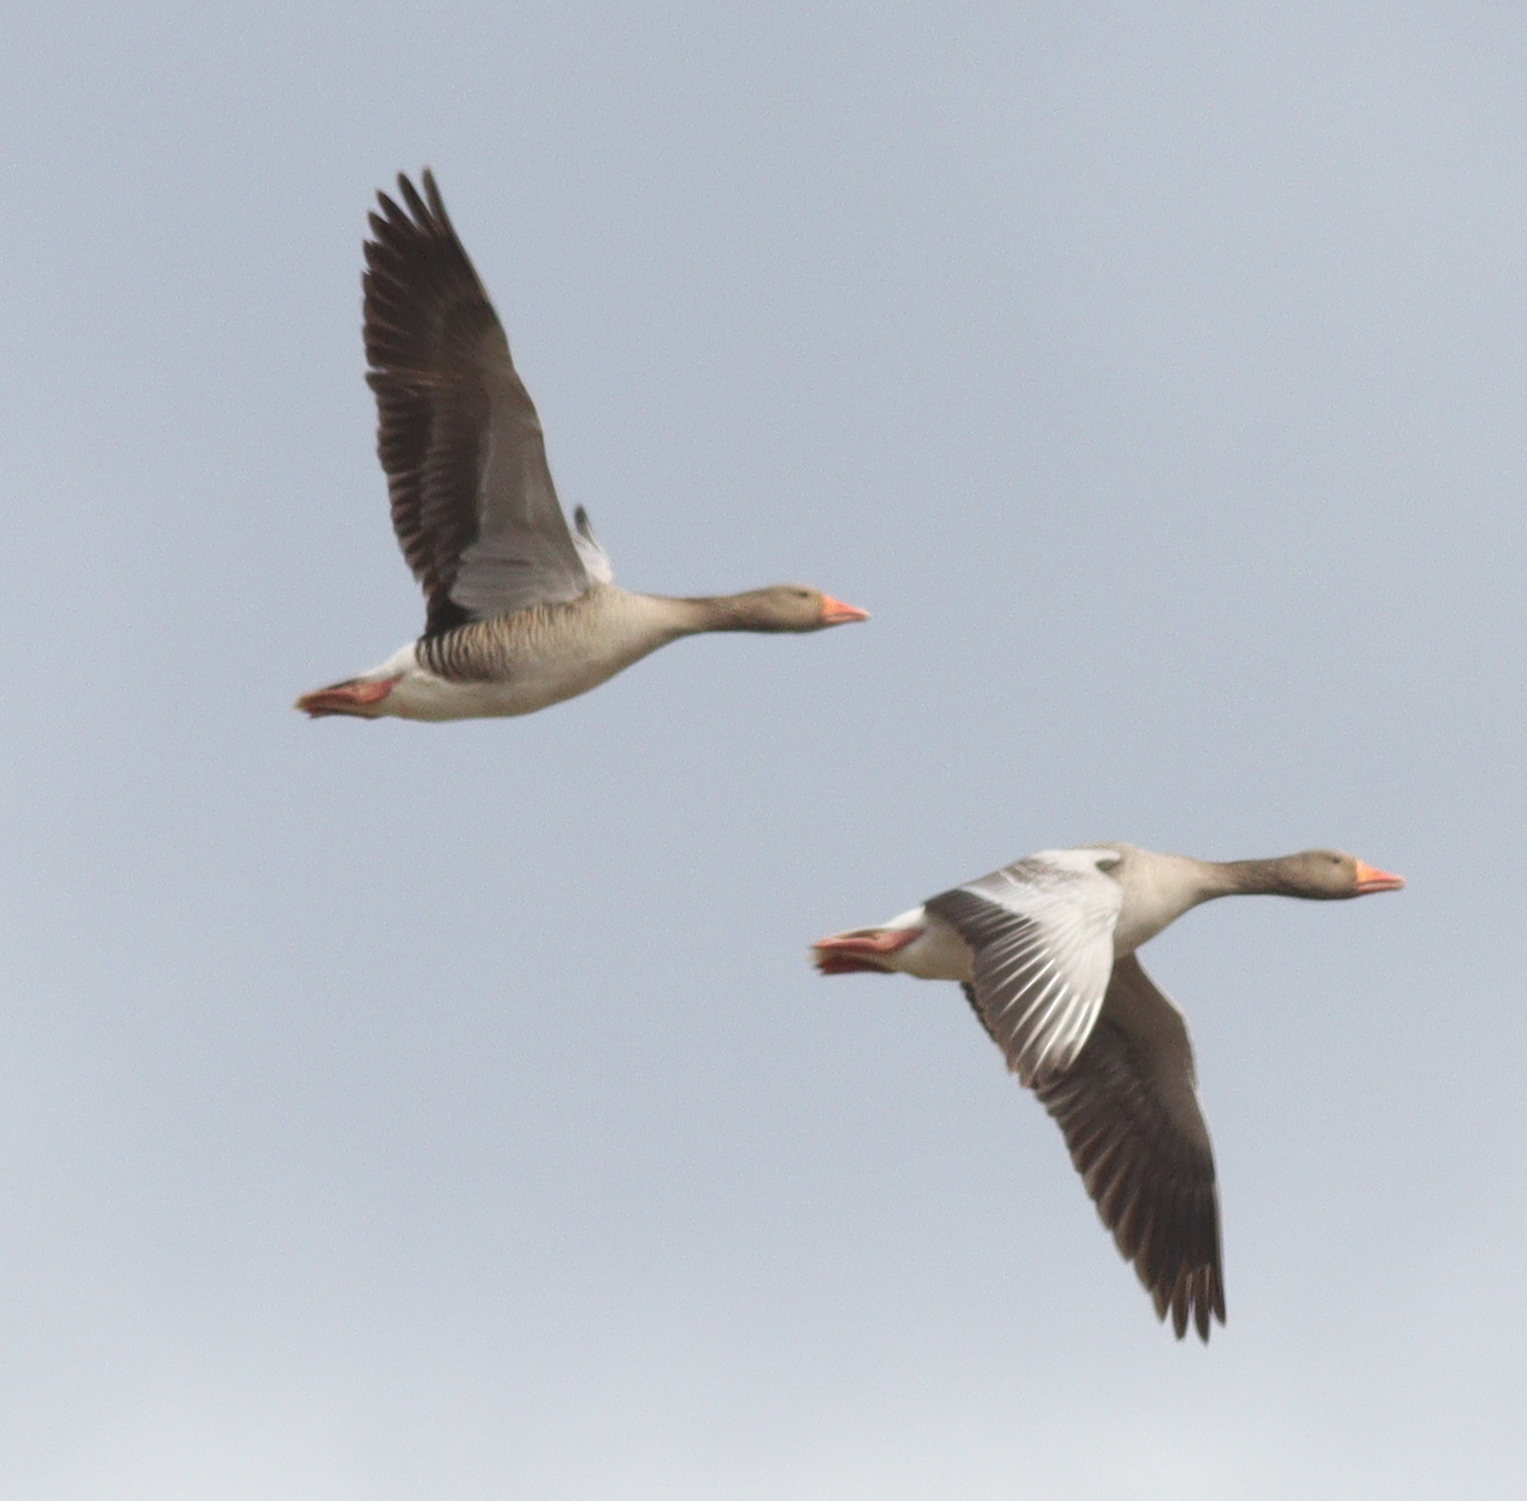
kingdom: Animalia
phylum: Chordata
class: Aves
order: Anseriformes
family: Anatidae
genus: Anser
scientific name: Anser anser
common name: Greylag goose
